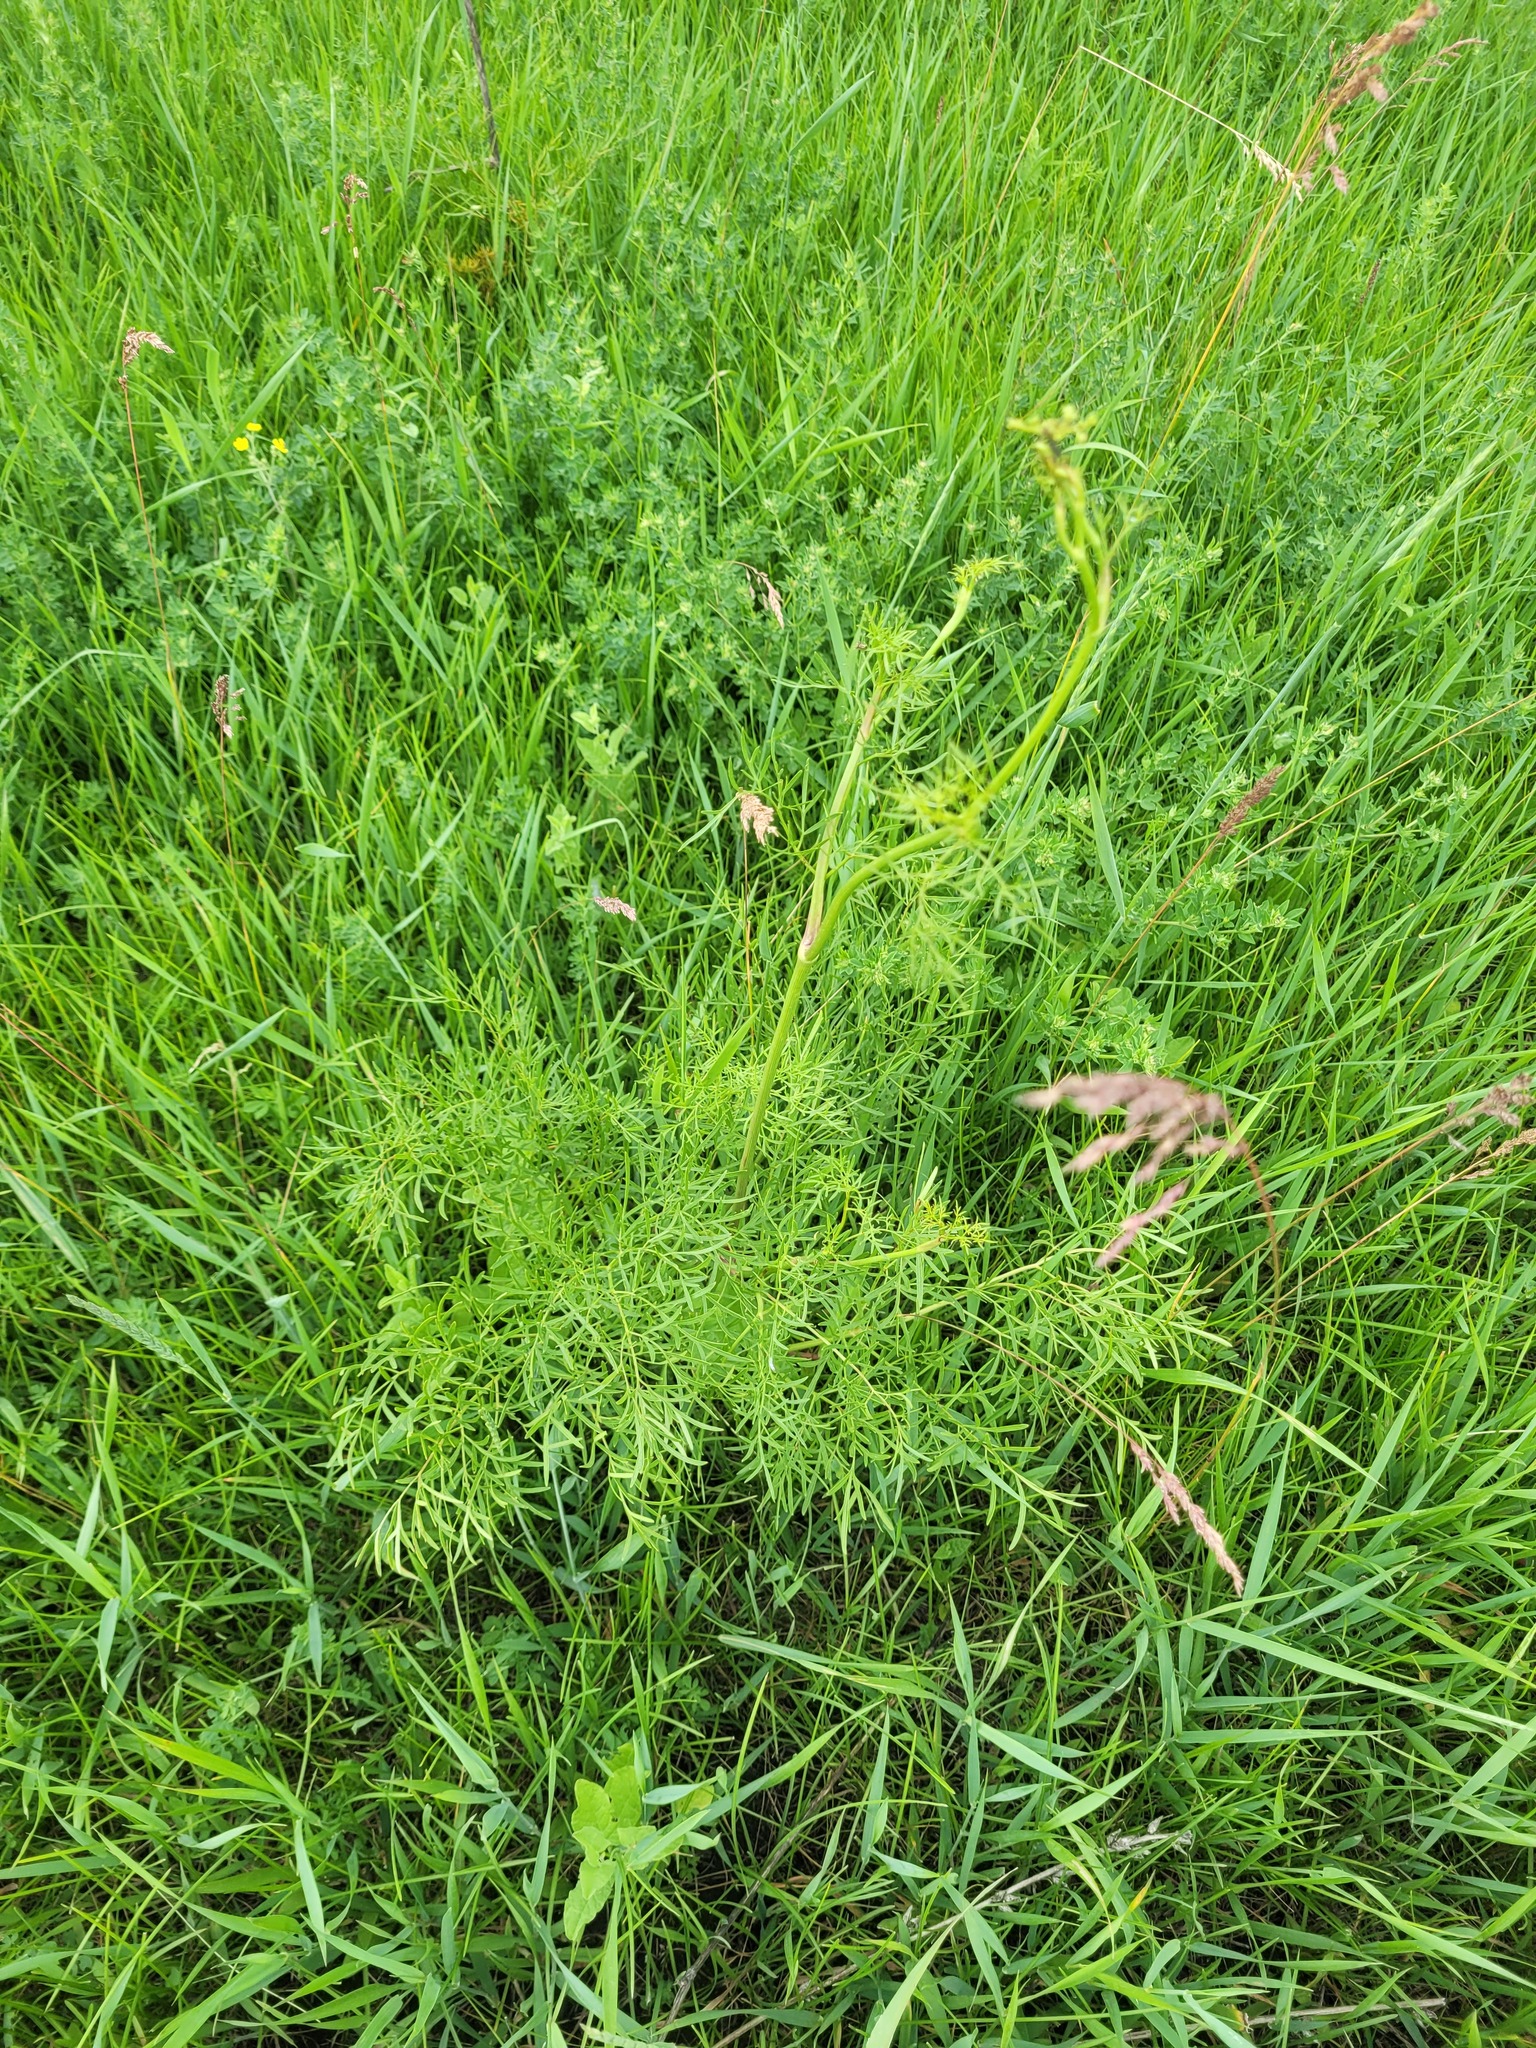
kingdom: Plantae
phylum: Tracheophyta
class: Magnoliopsida
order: Apiales
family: Apiaceae
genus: Silaum
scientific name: Silaum silaus
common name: Pepper-saxifrage
